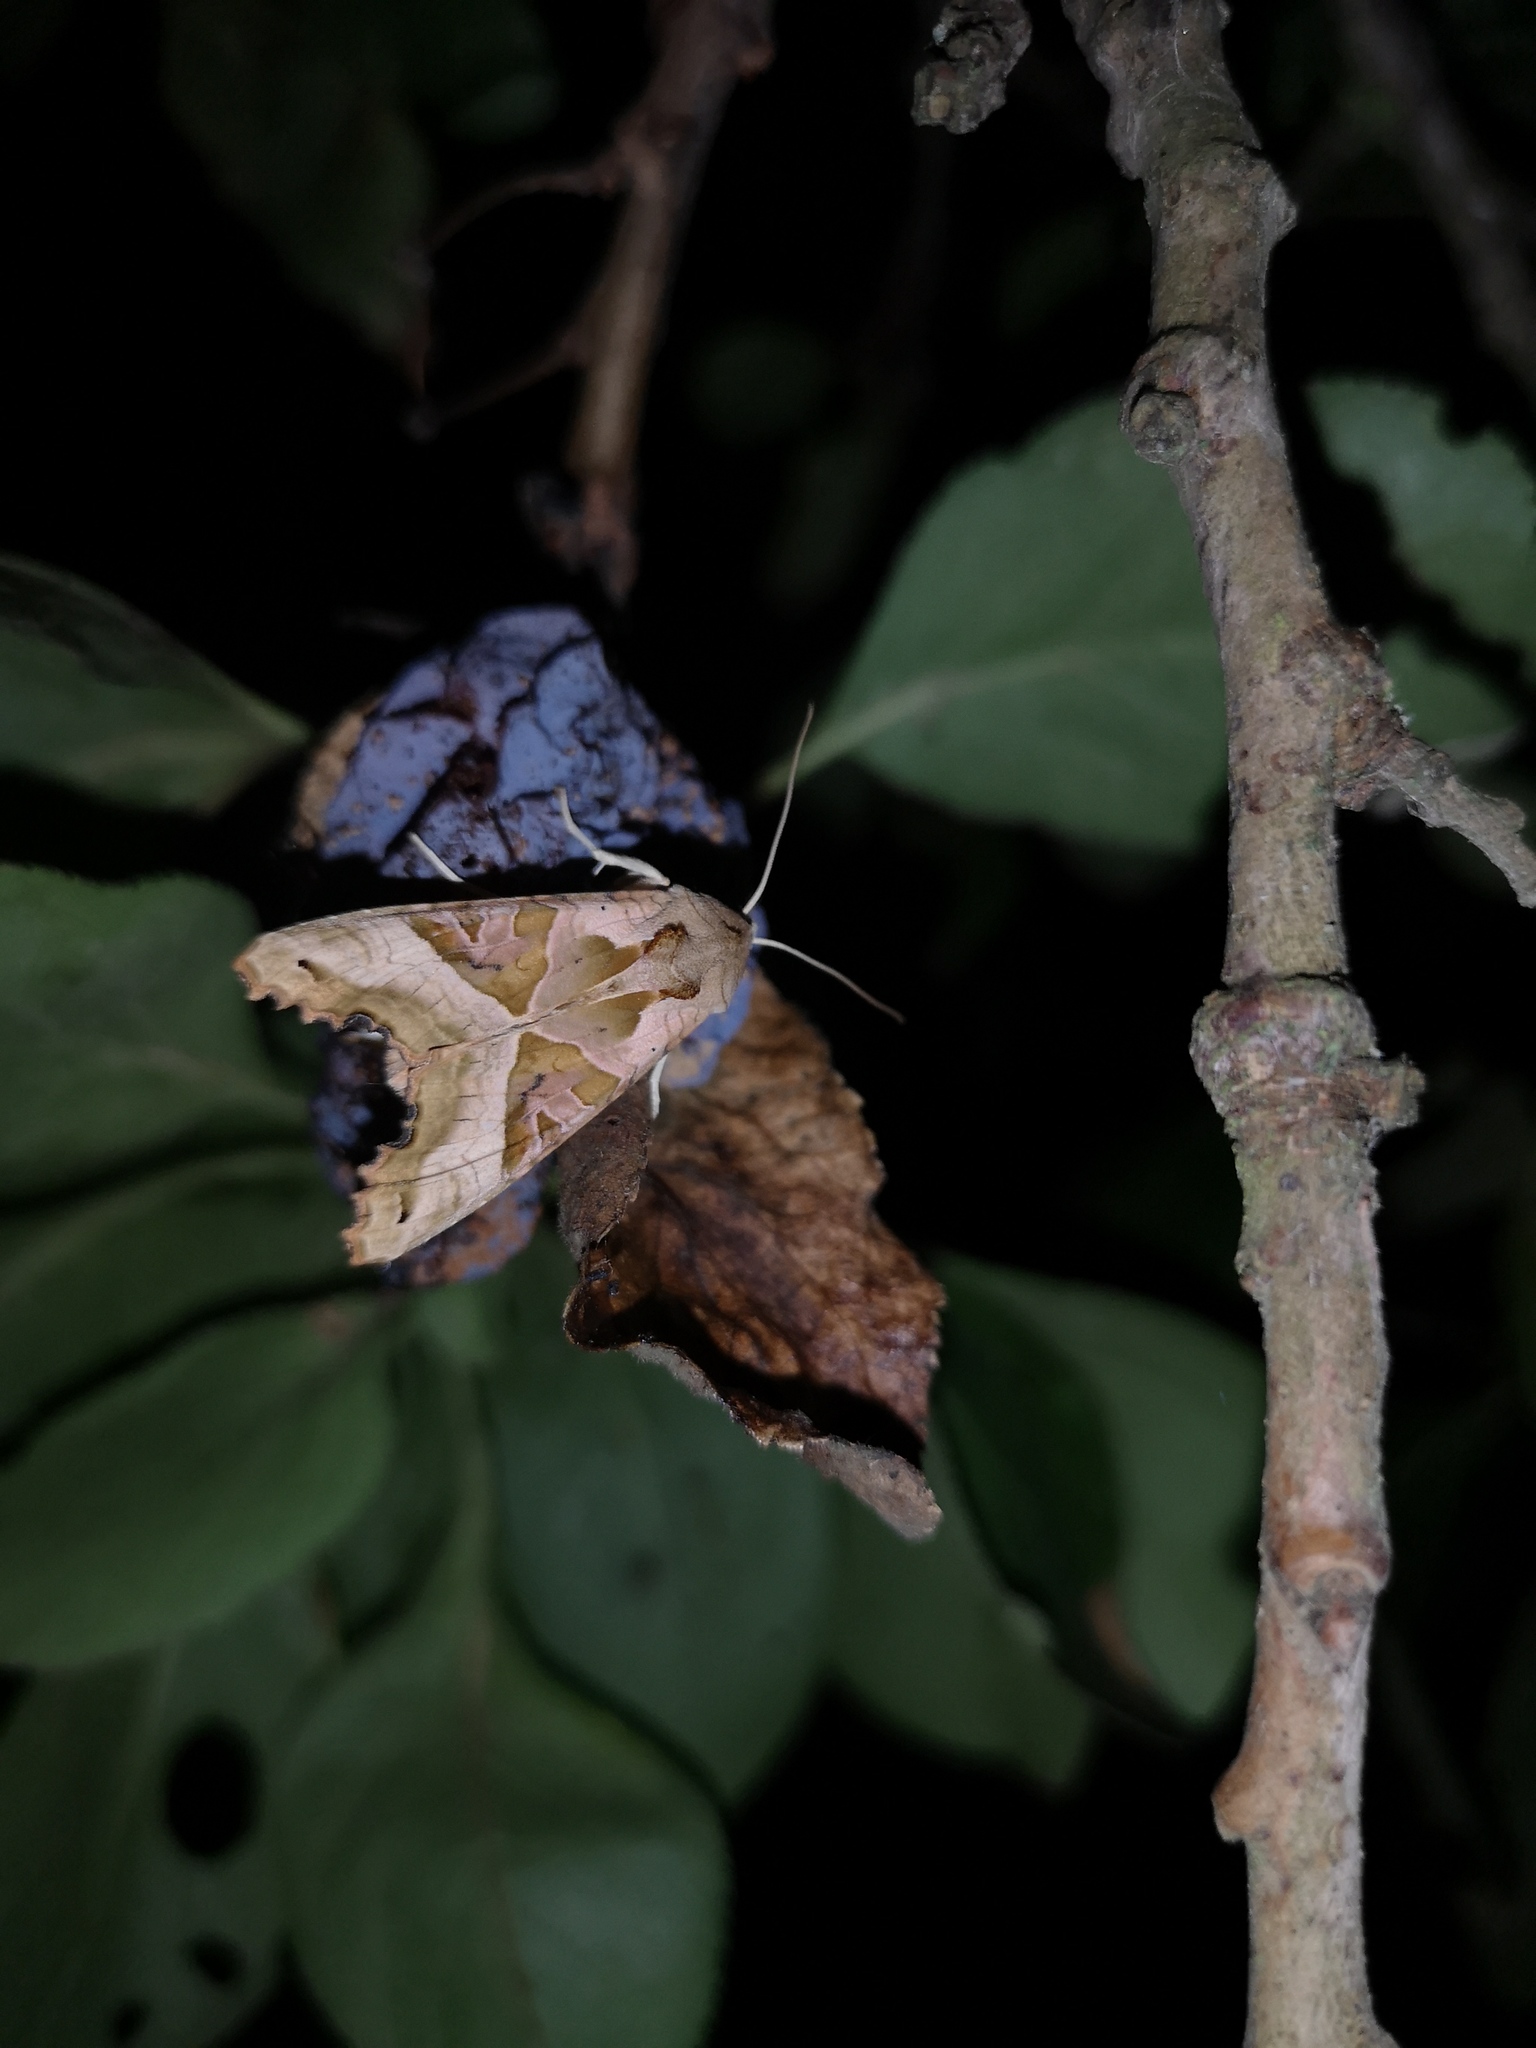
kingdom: Animalia
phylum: Arthropoda
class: Insecta
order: Lepidoptera
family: Noctuidae
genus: Phlogophora
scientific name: Phlogophora meticulosa
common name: Angle shades
